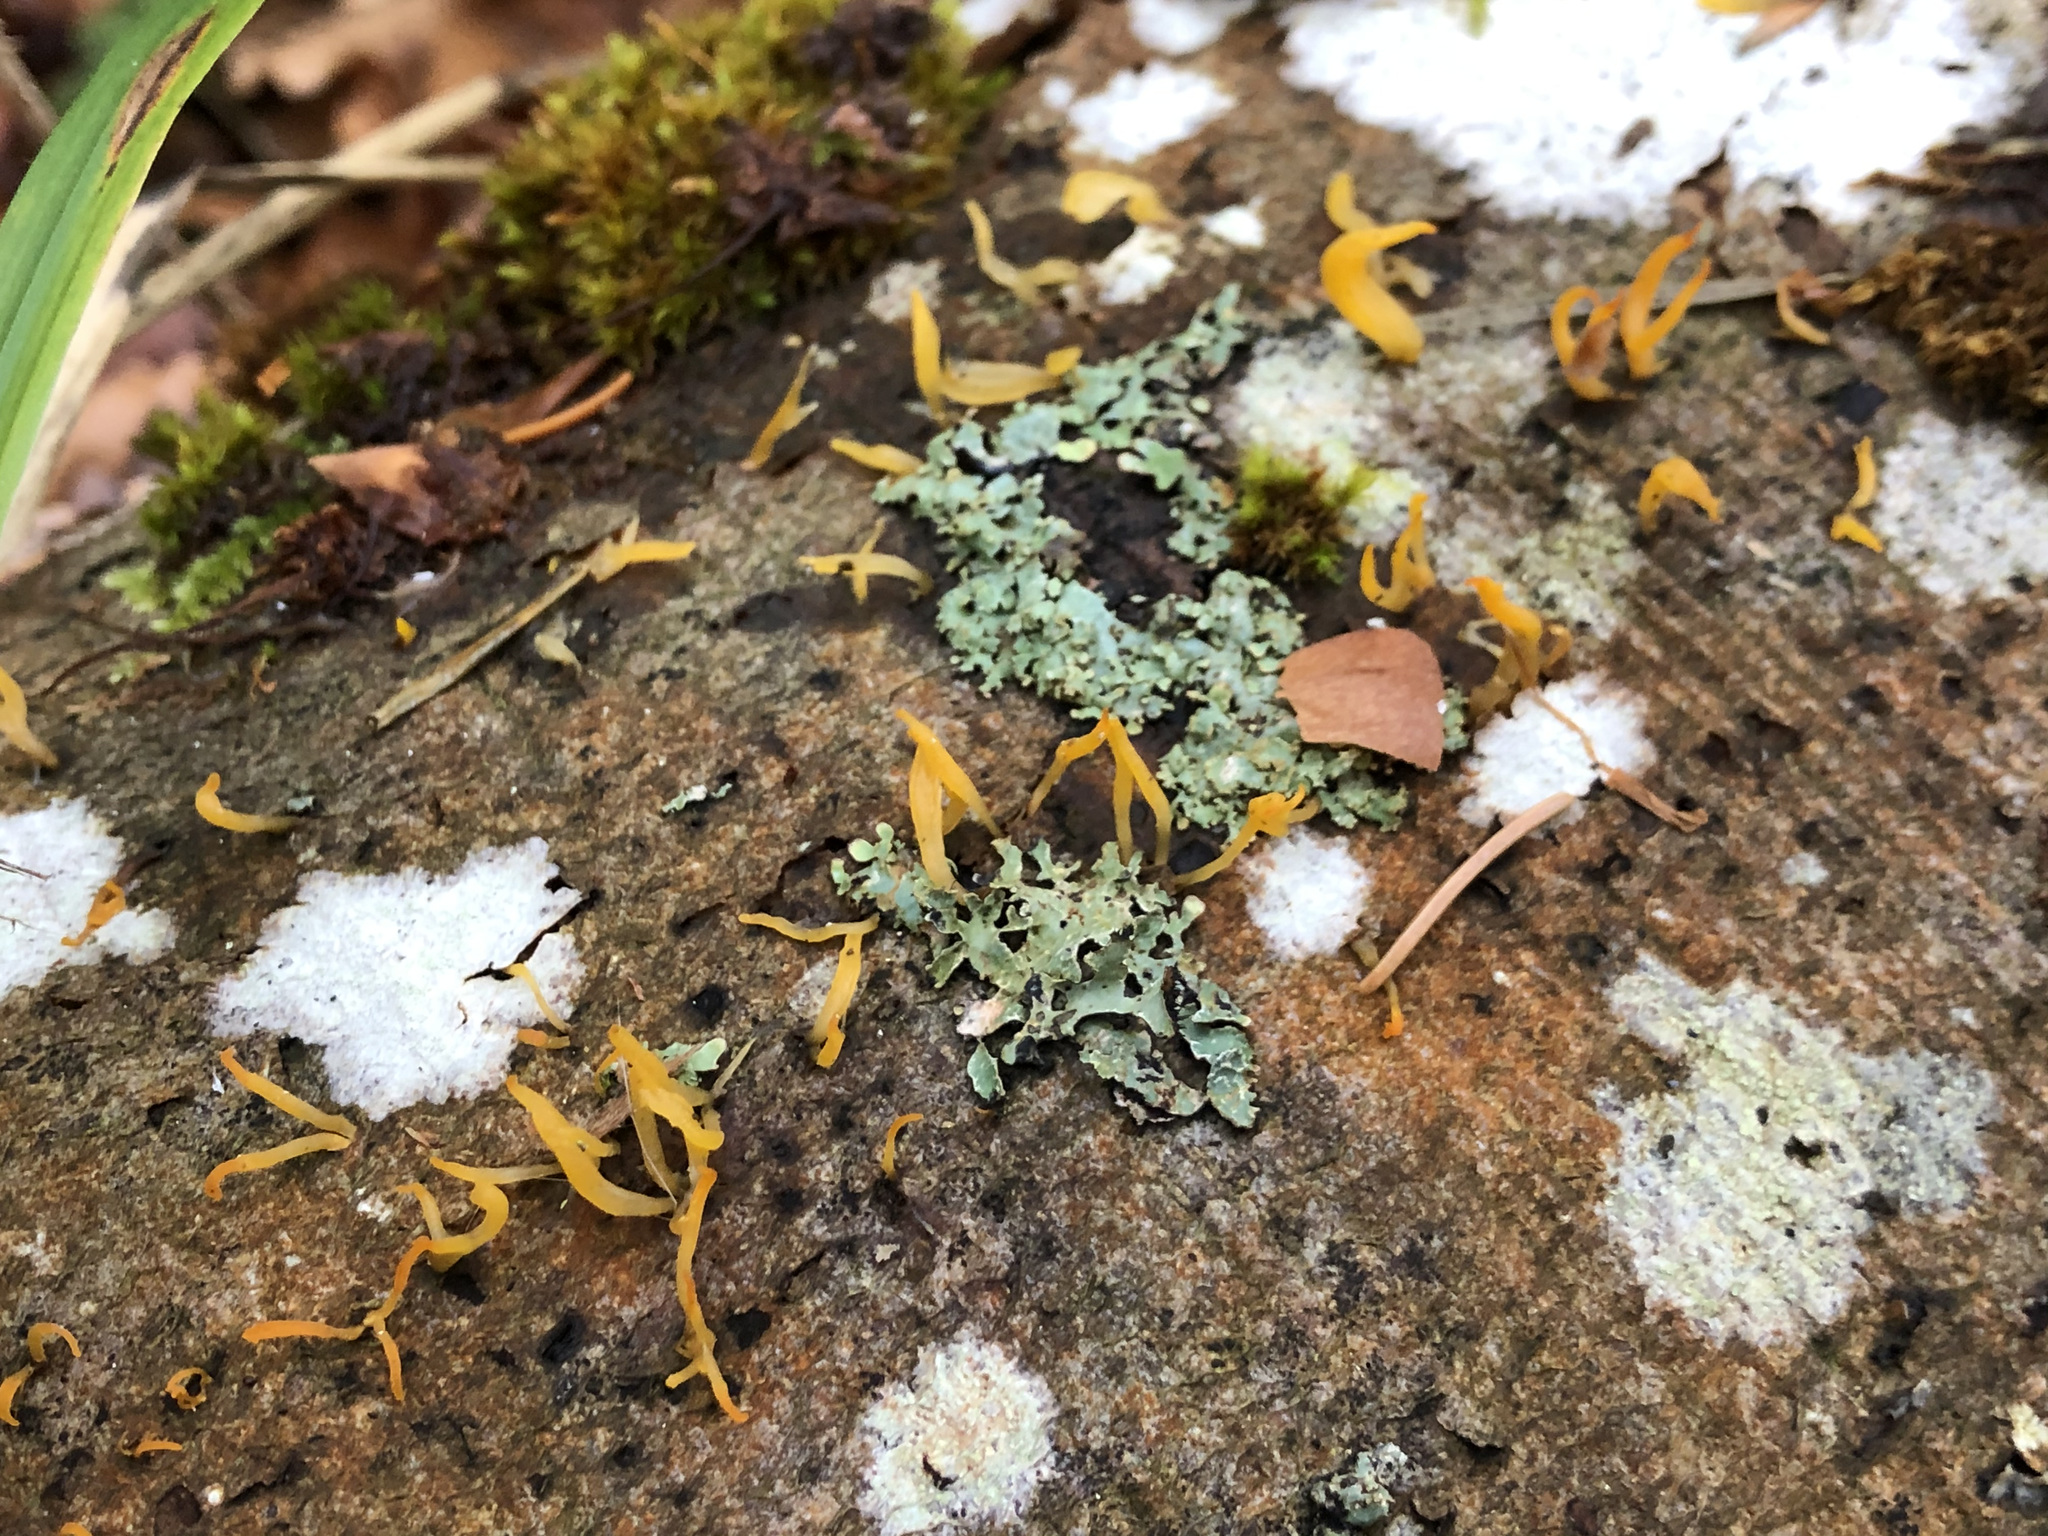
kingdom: Fungi
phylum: Basidiomycota
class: Dacrymycetes
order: Dacrymycetales
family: Dacrymycetaceae
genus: Calocera
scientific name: Calocera cornea
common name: Small stagshorn
